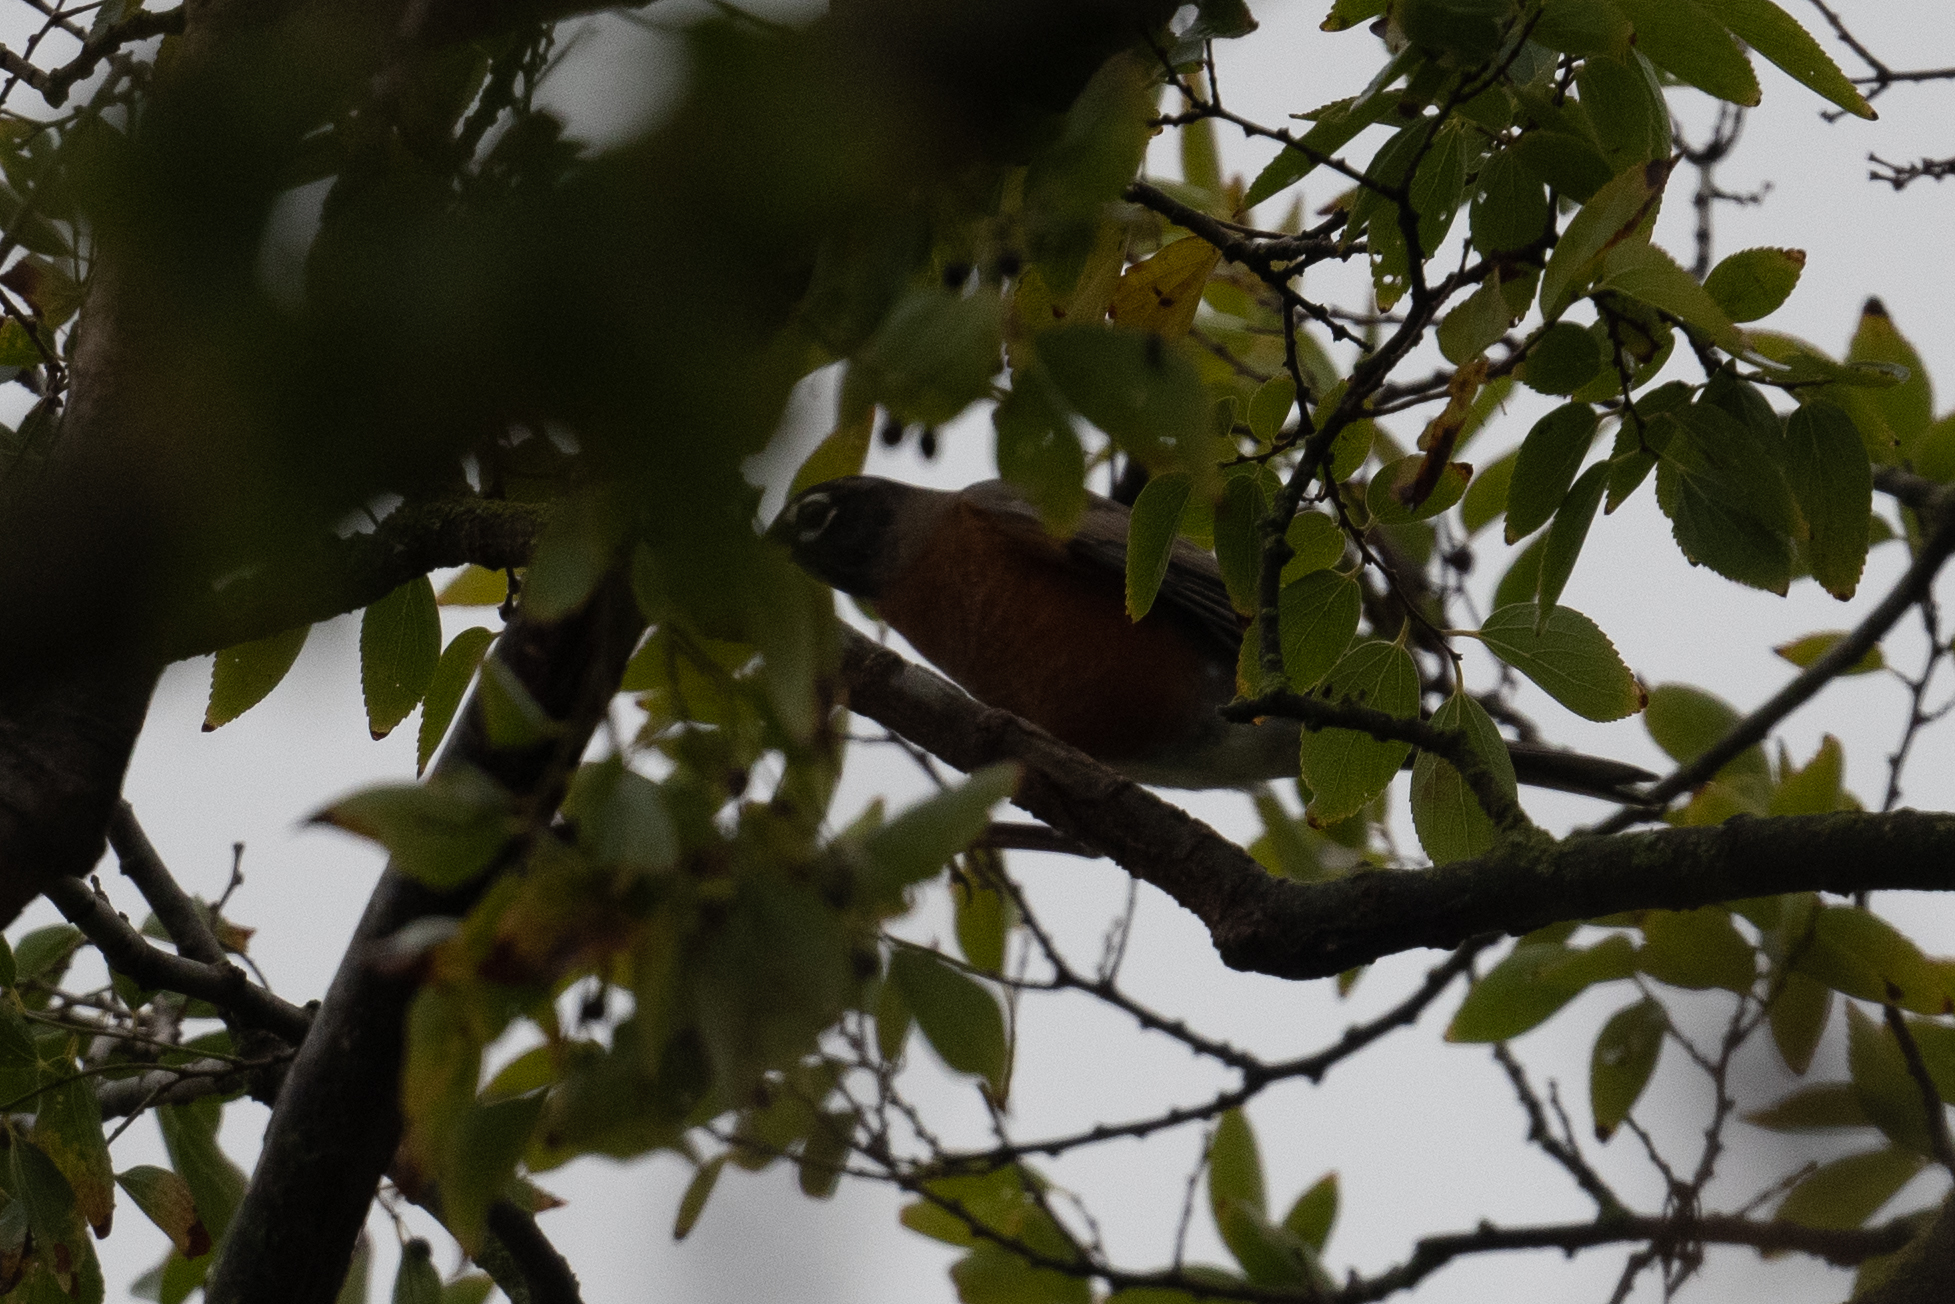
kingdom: Animalia
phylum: Chordata
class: Aves
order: Passeriformes
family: Turdidae
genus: Turdus
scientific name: Turdus migratorius
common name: American robin
